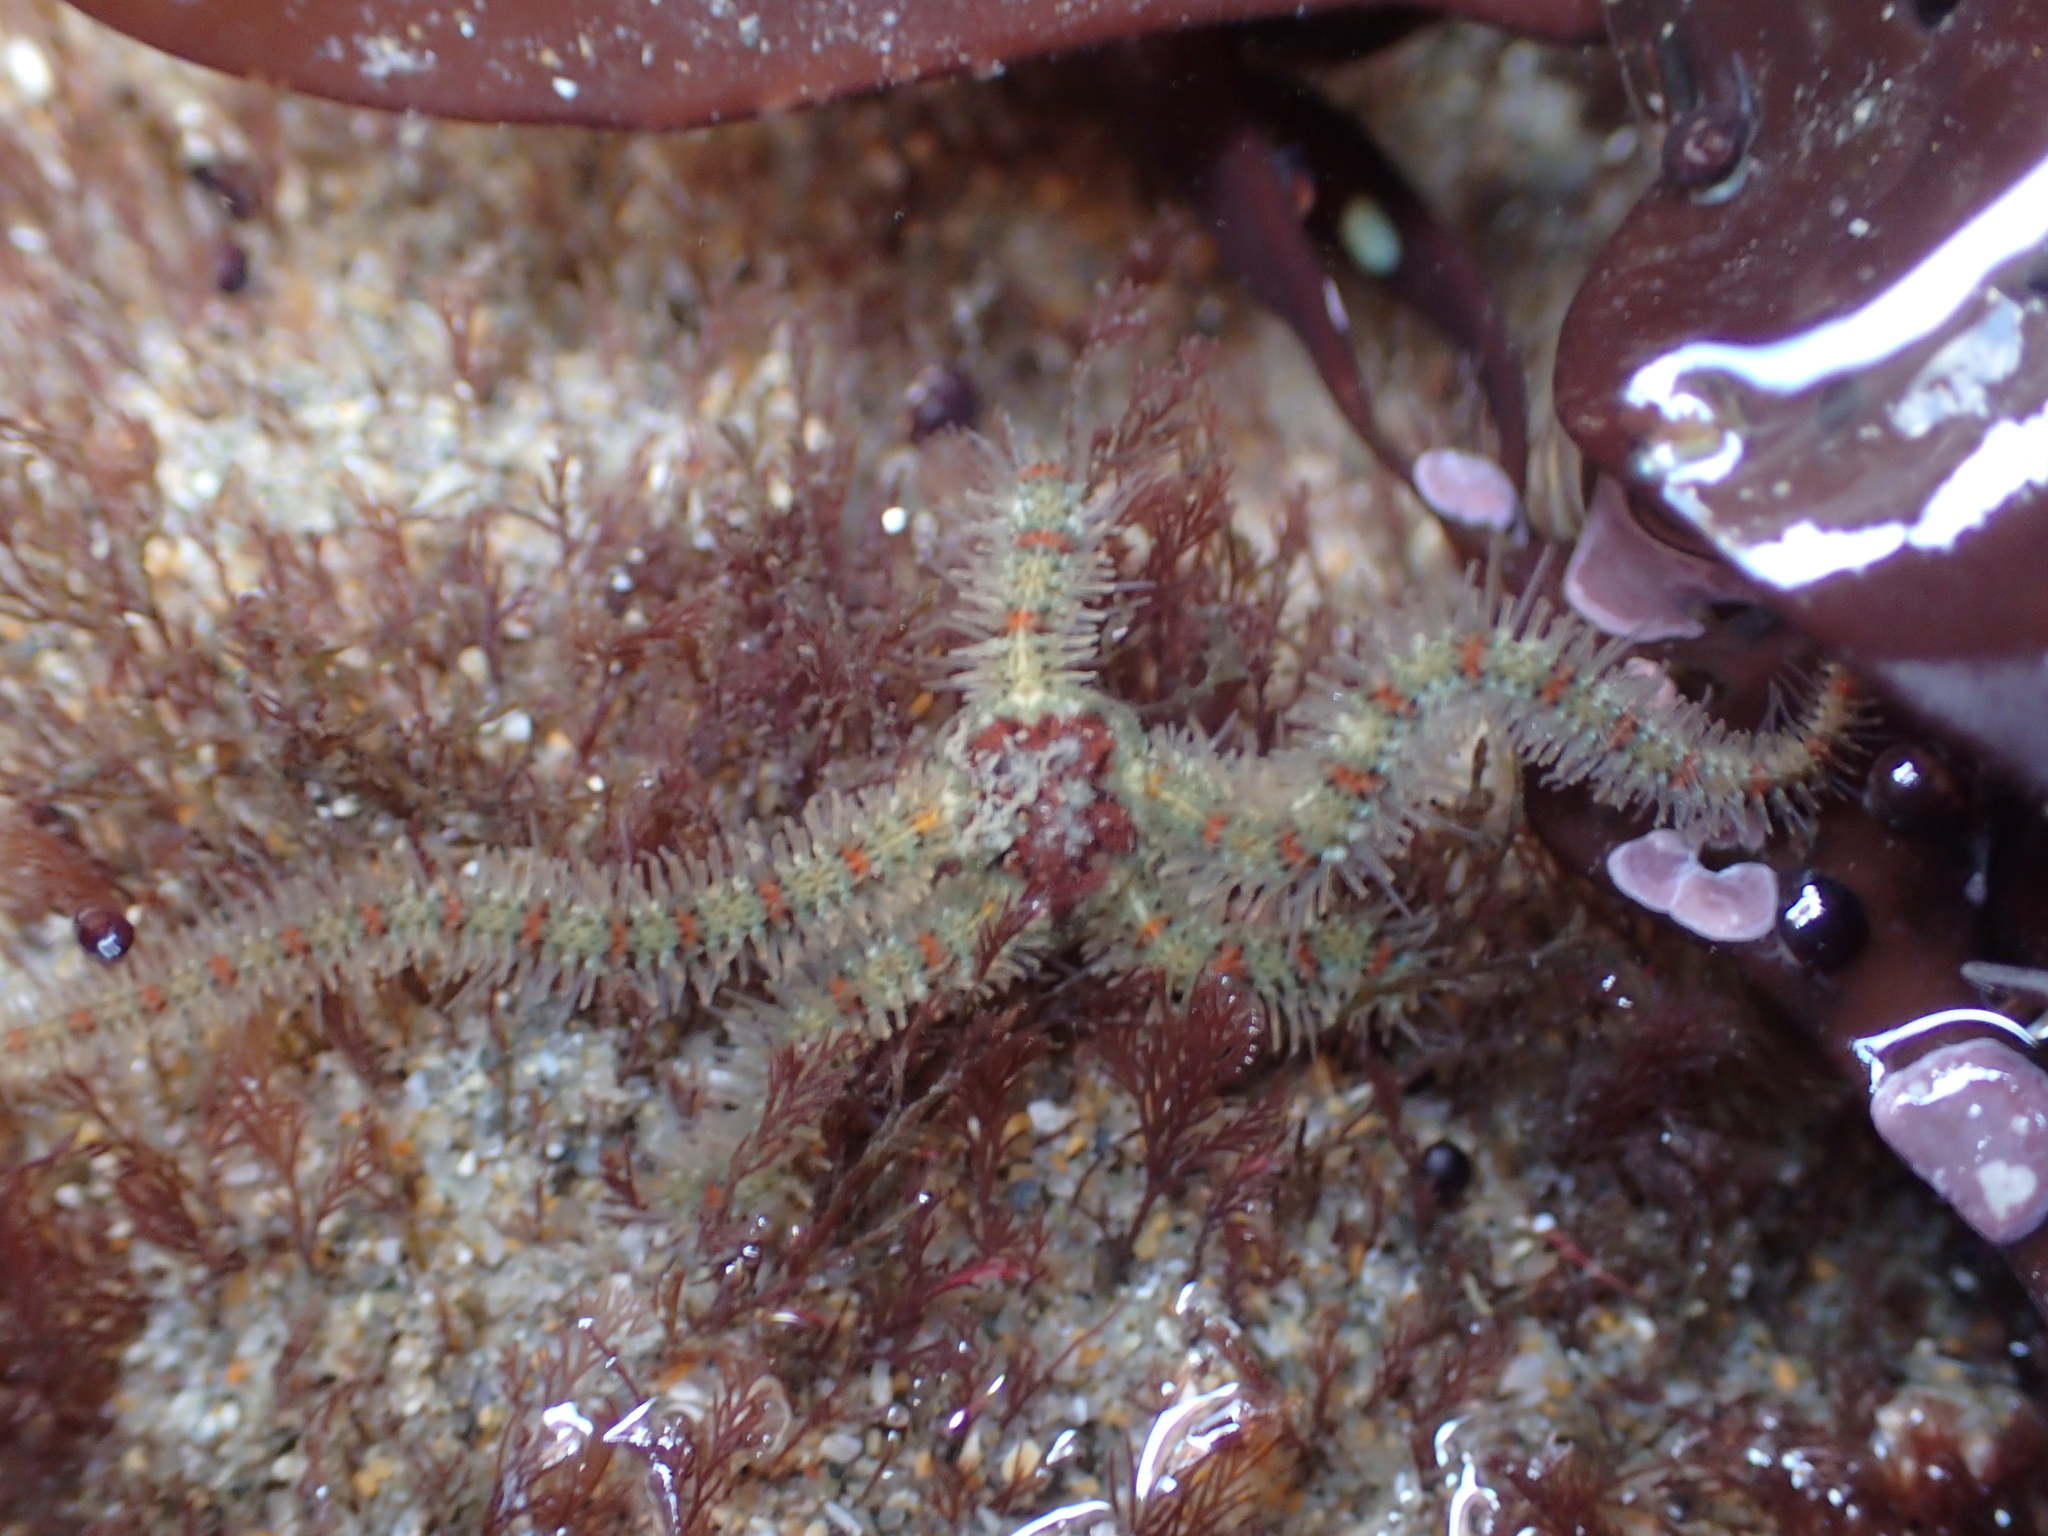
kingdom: Animalia
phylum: Echinodermata
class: Ophiuroidea
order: Amphilepidida
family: Ophiotrichidae
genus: Ophiothrix
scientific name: Ophiothrix spiculata
